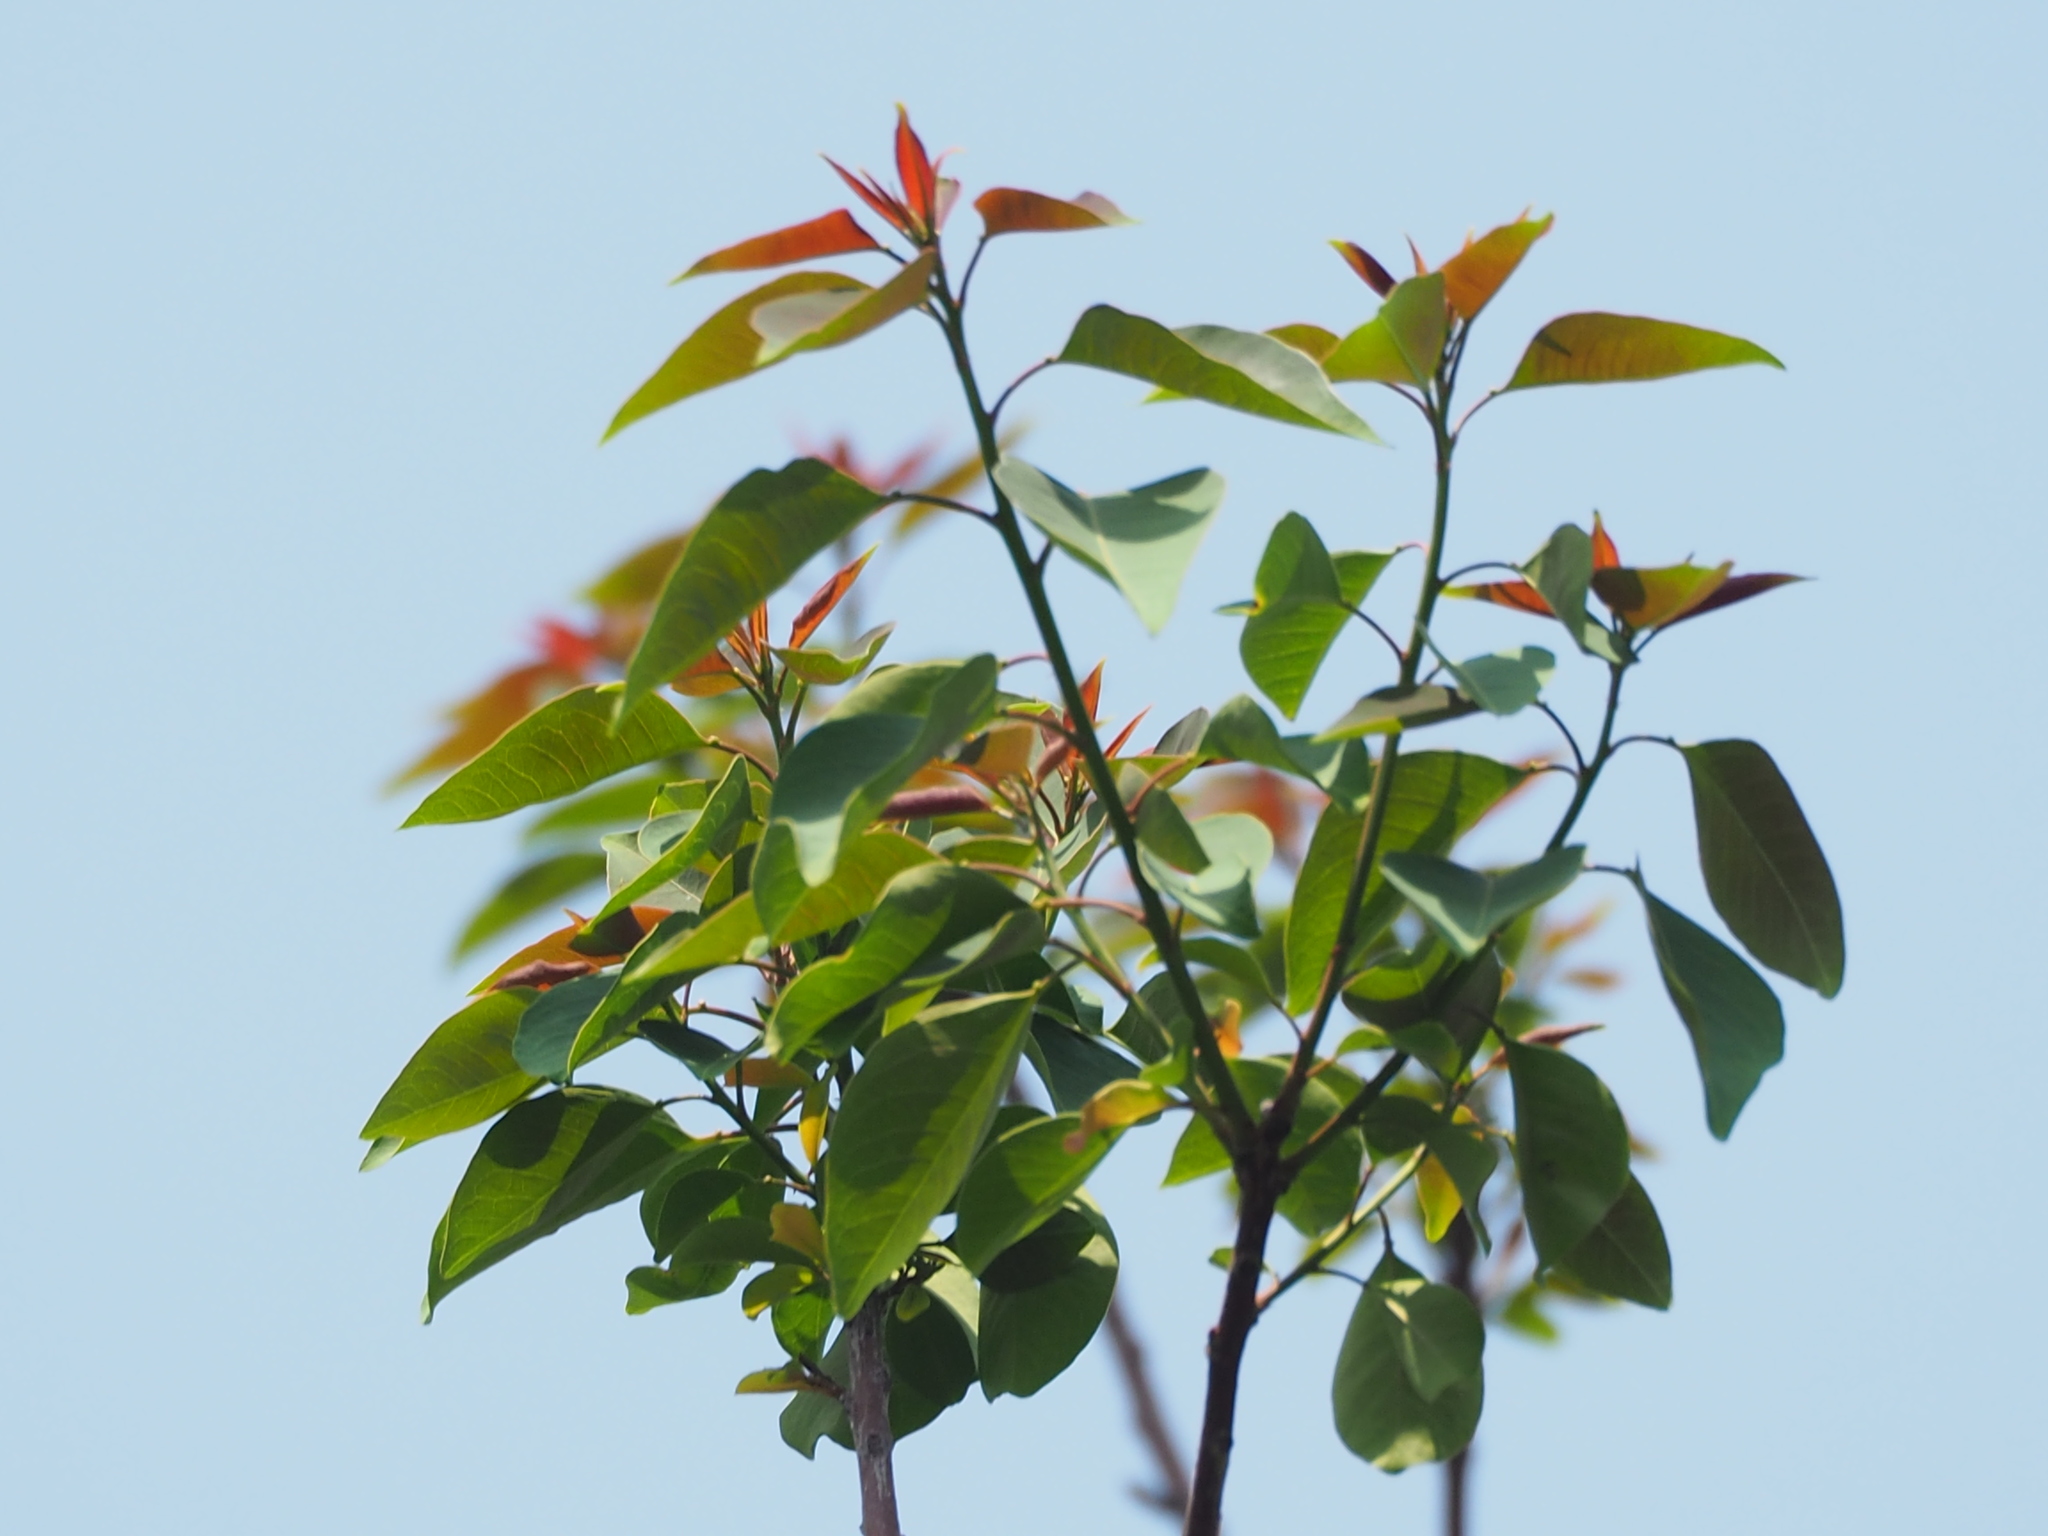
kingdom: Plantae
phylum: Tracheophyta
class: Magnoliopsida
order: Malpighiales
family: Euphorbiaceae
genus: Triadica
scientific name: Triadica cochinchinensis
